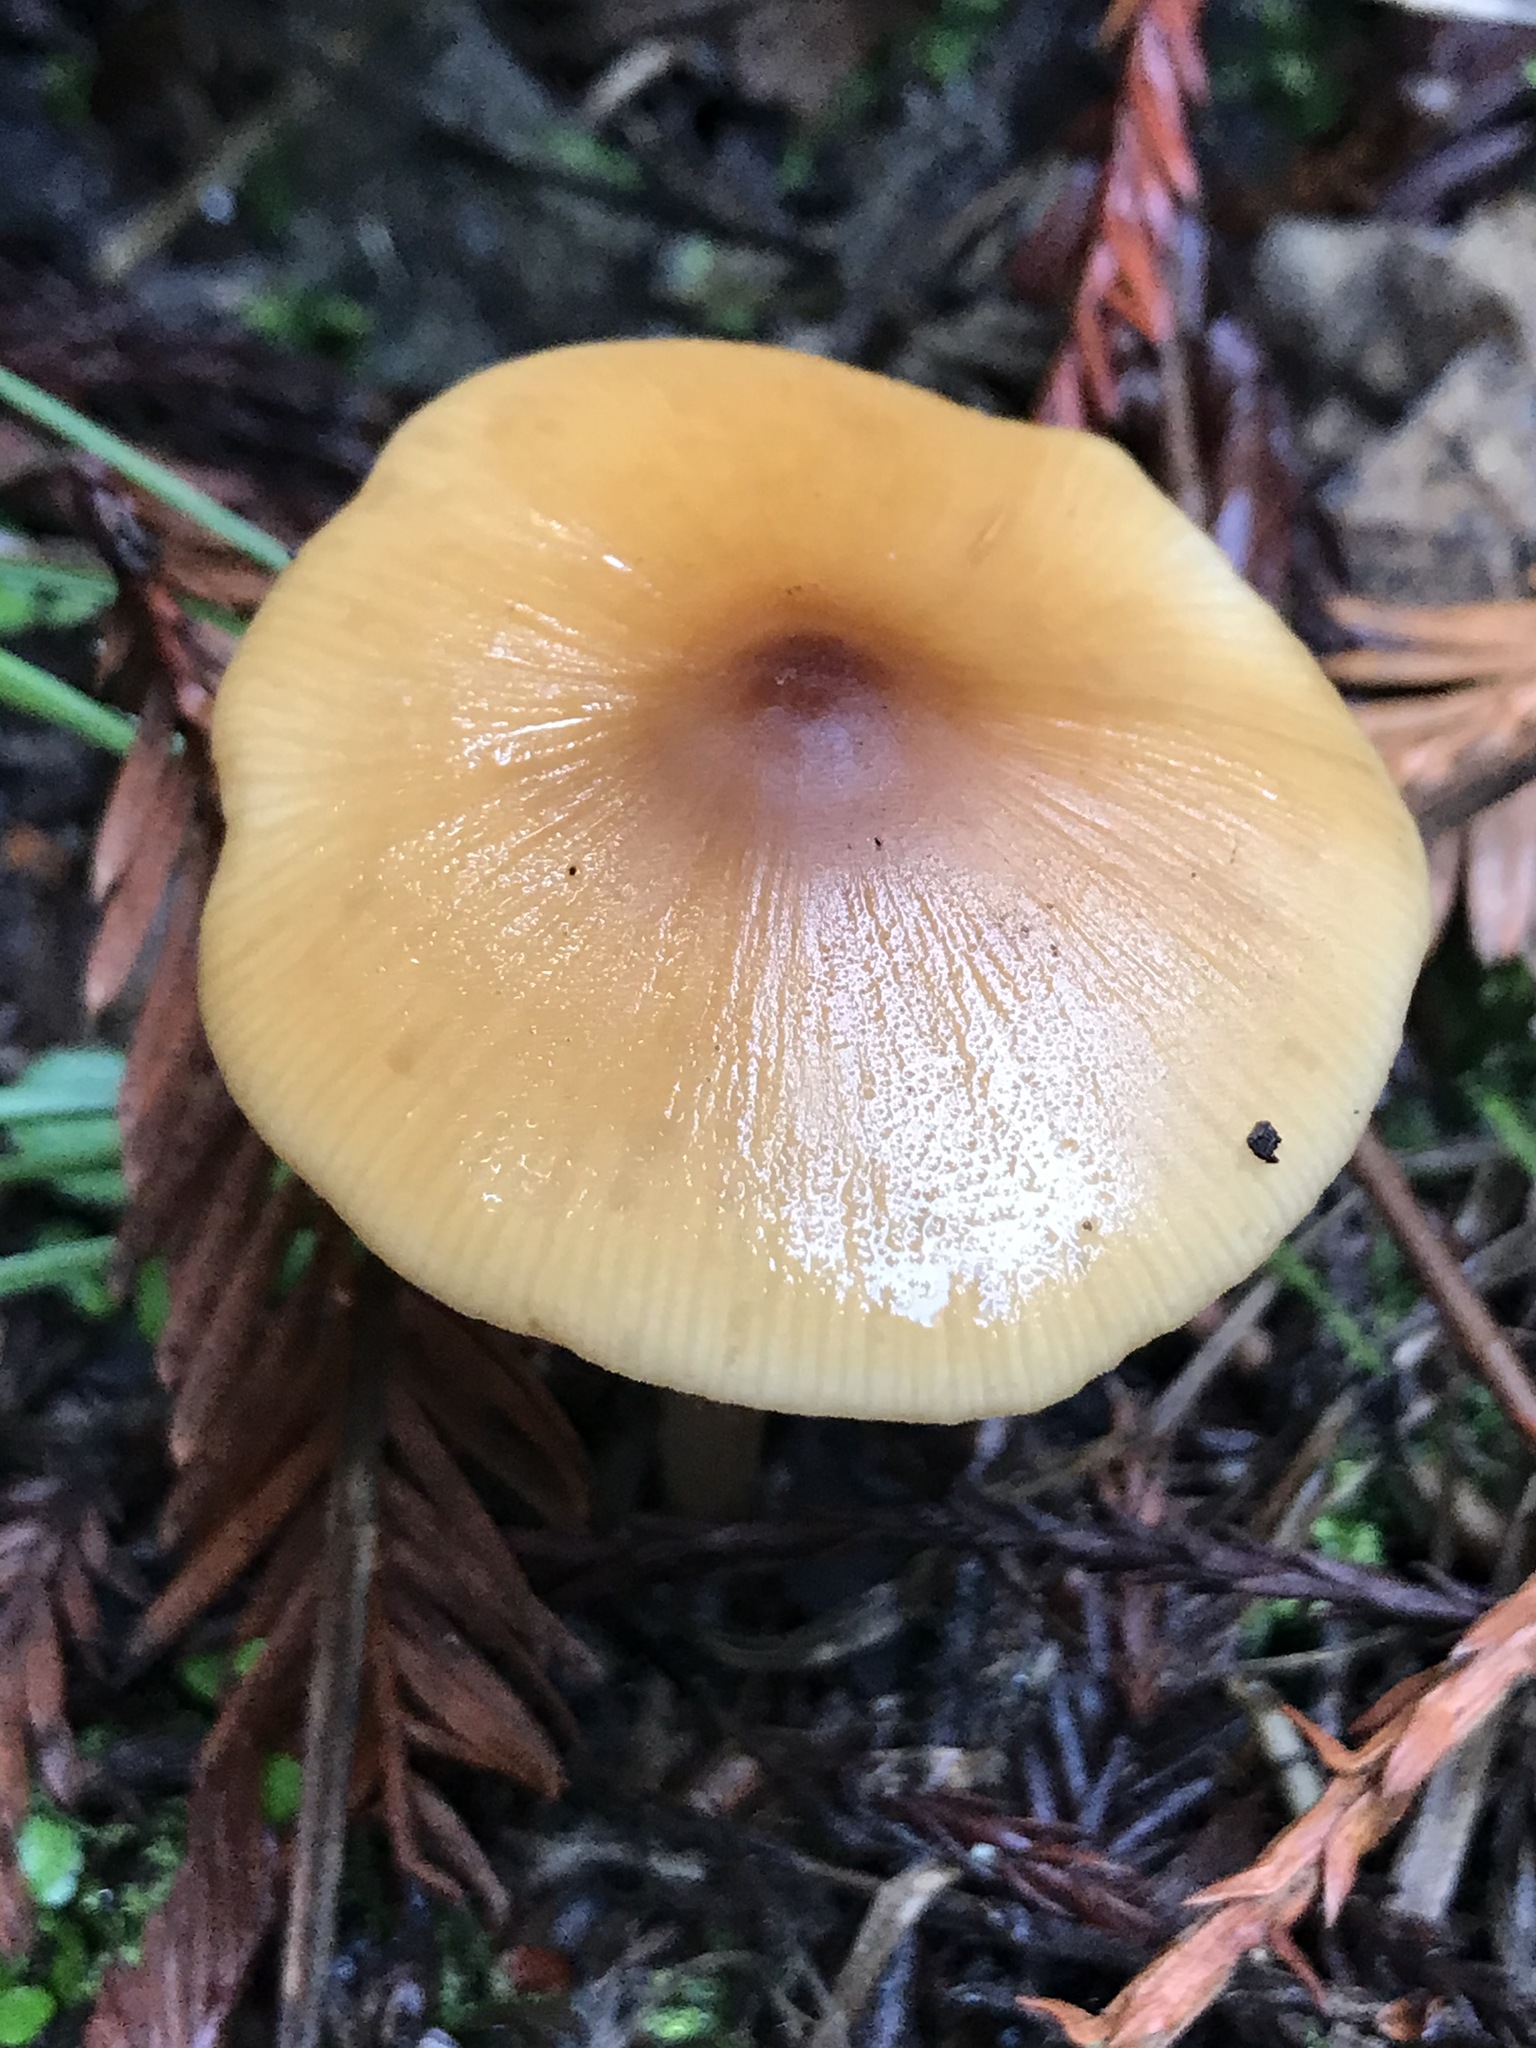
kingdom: Fungi
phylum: Basidiomycota
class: Agaricomycetes
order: Agaricales
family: Tricholomataceae
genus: Caulorhiza
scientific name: Caulorhiza umbonata
